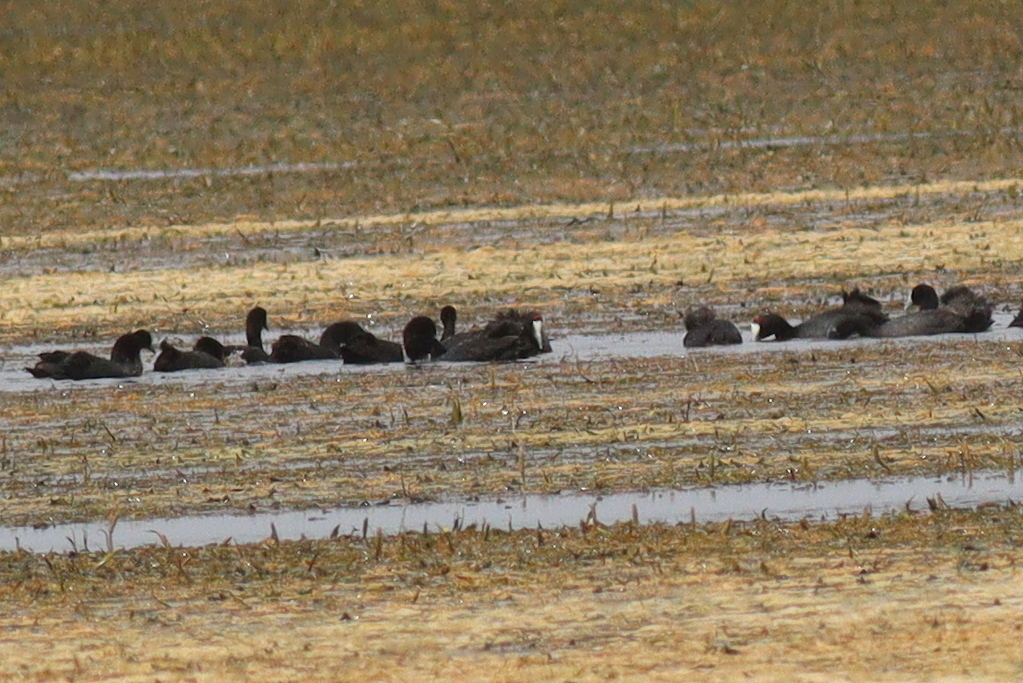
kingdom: Animalia
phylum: Chordata
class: Aves
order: Gruiformes
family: Rallidae
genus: Fulica
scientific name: Fulica cristata
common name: Red-knobbed coot
